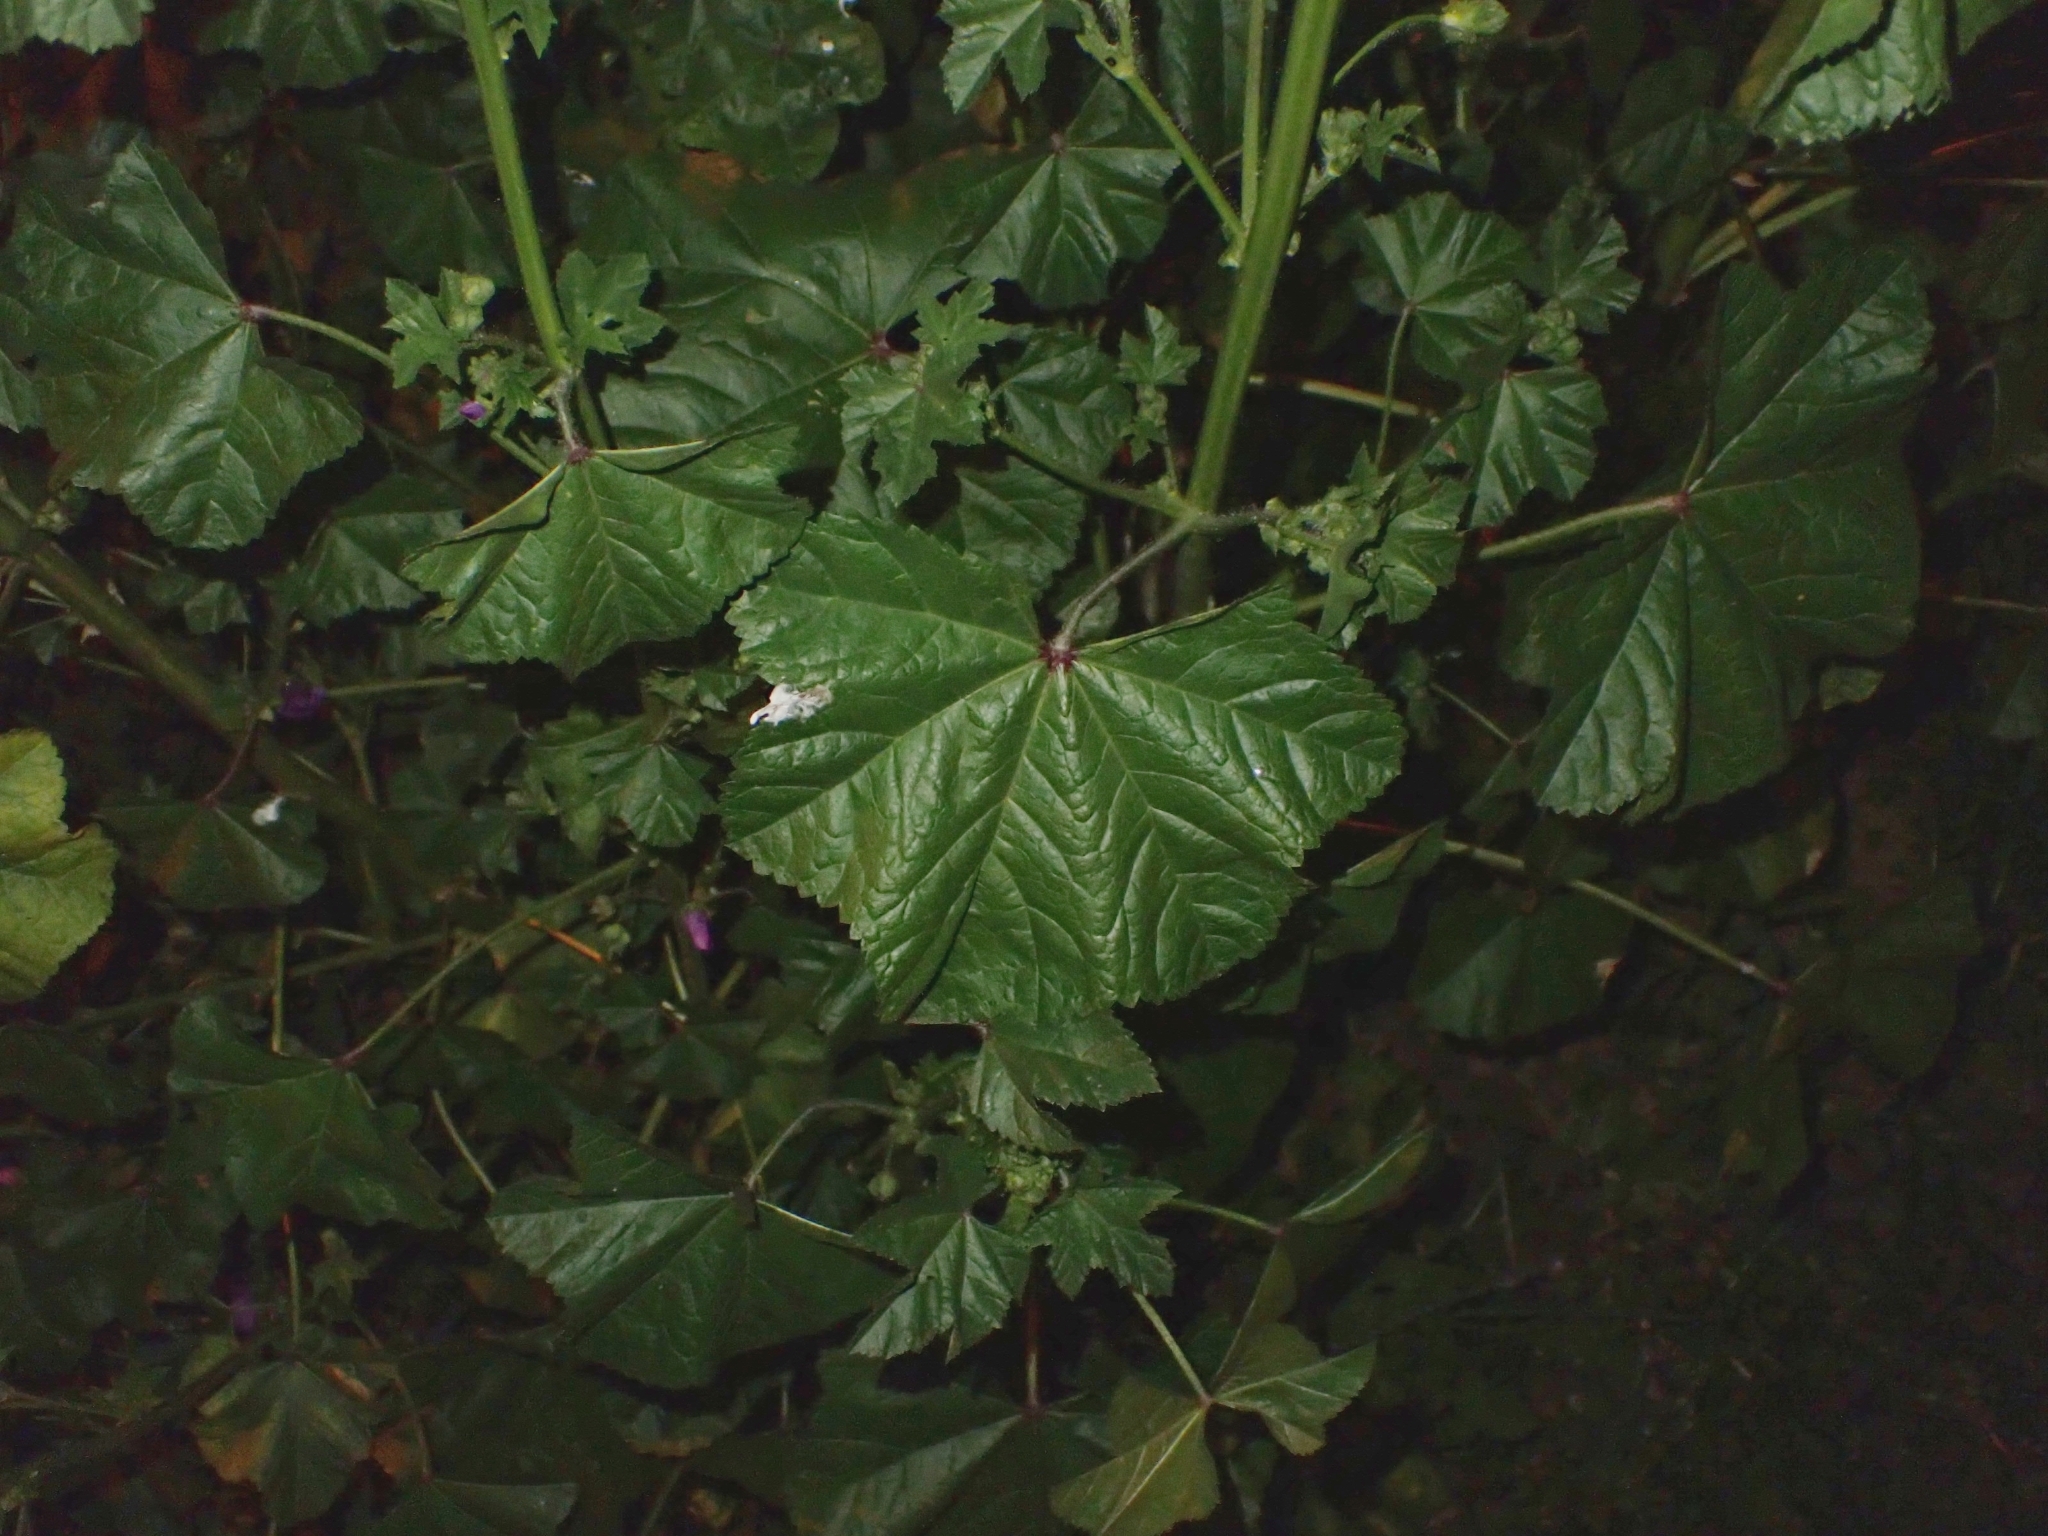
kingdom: Plantae
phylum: Tracheophyta
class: Magnoliopsida
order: Malvales
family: Malvaceae
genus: Malva
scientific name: Malva sylvestris
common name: Common mallow
